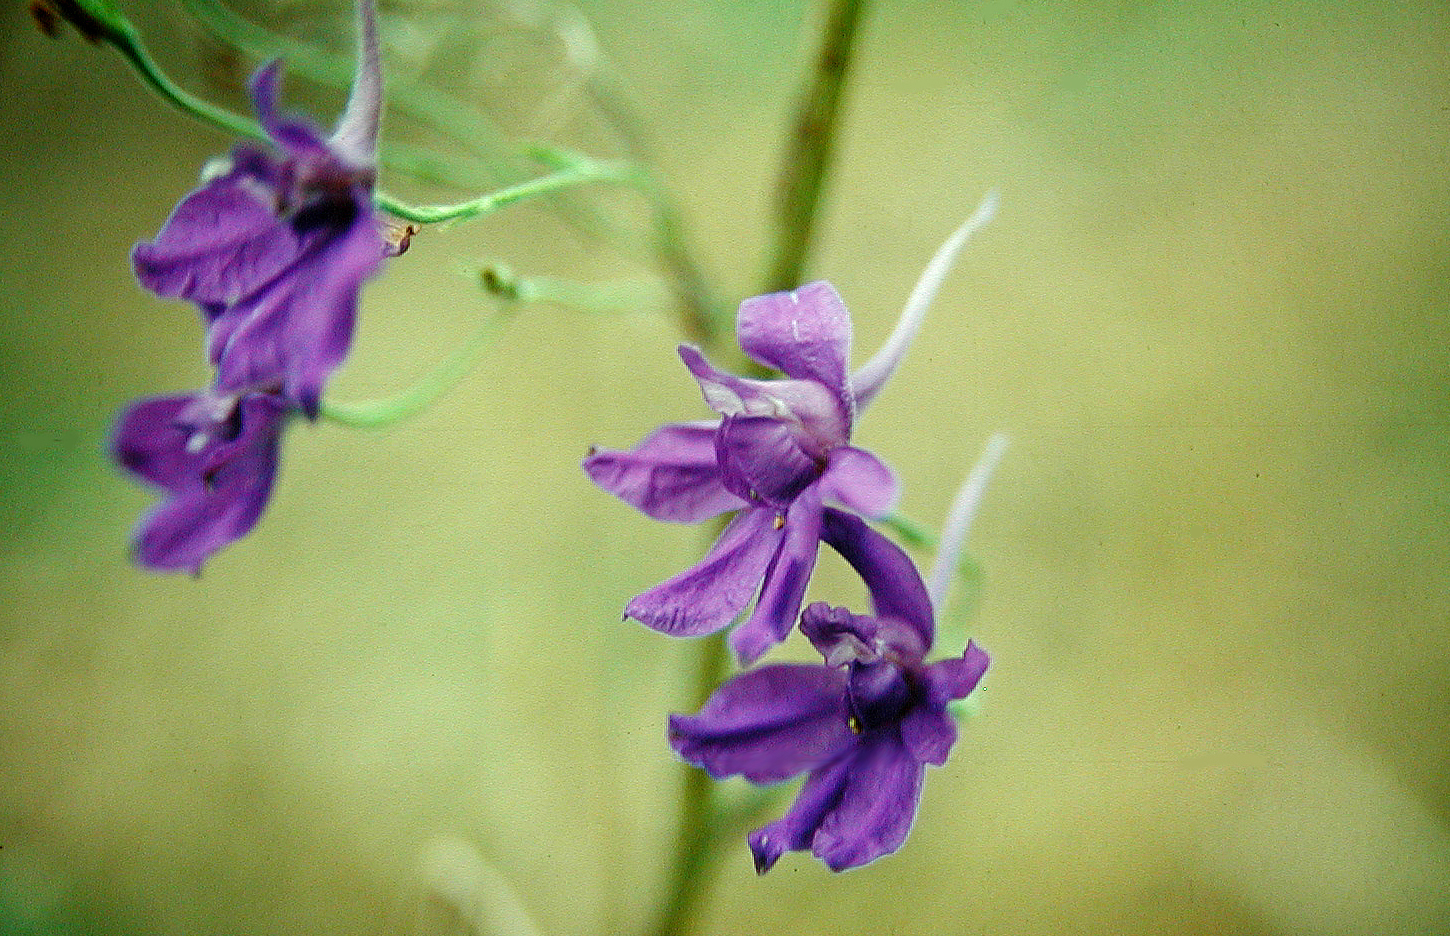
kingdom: Plantae
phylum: Tracheophyta
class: Magnoliopsida
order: Ranunculales
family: Ranunculaceae
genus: Delphinium
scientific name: Delphinium consolida
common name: Branching larkspur
